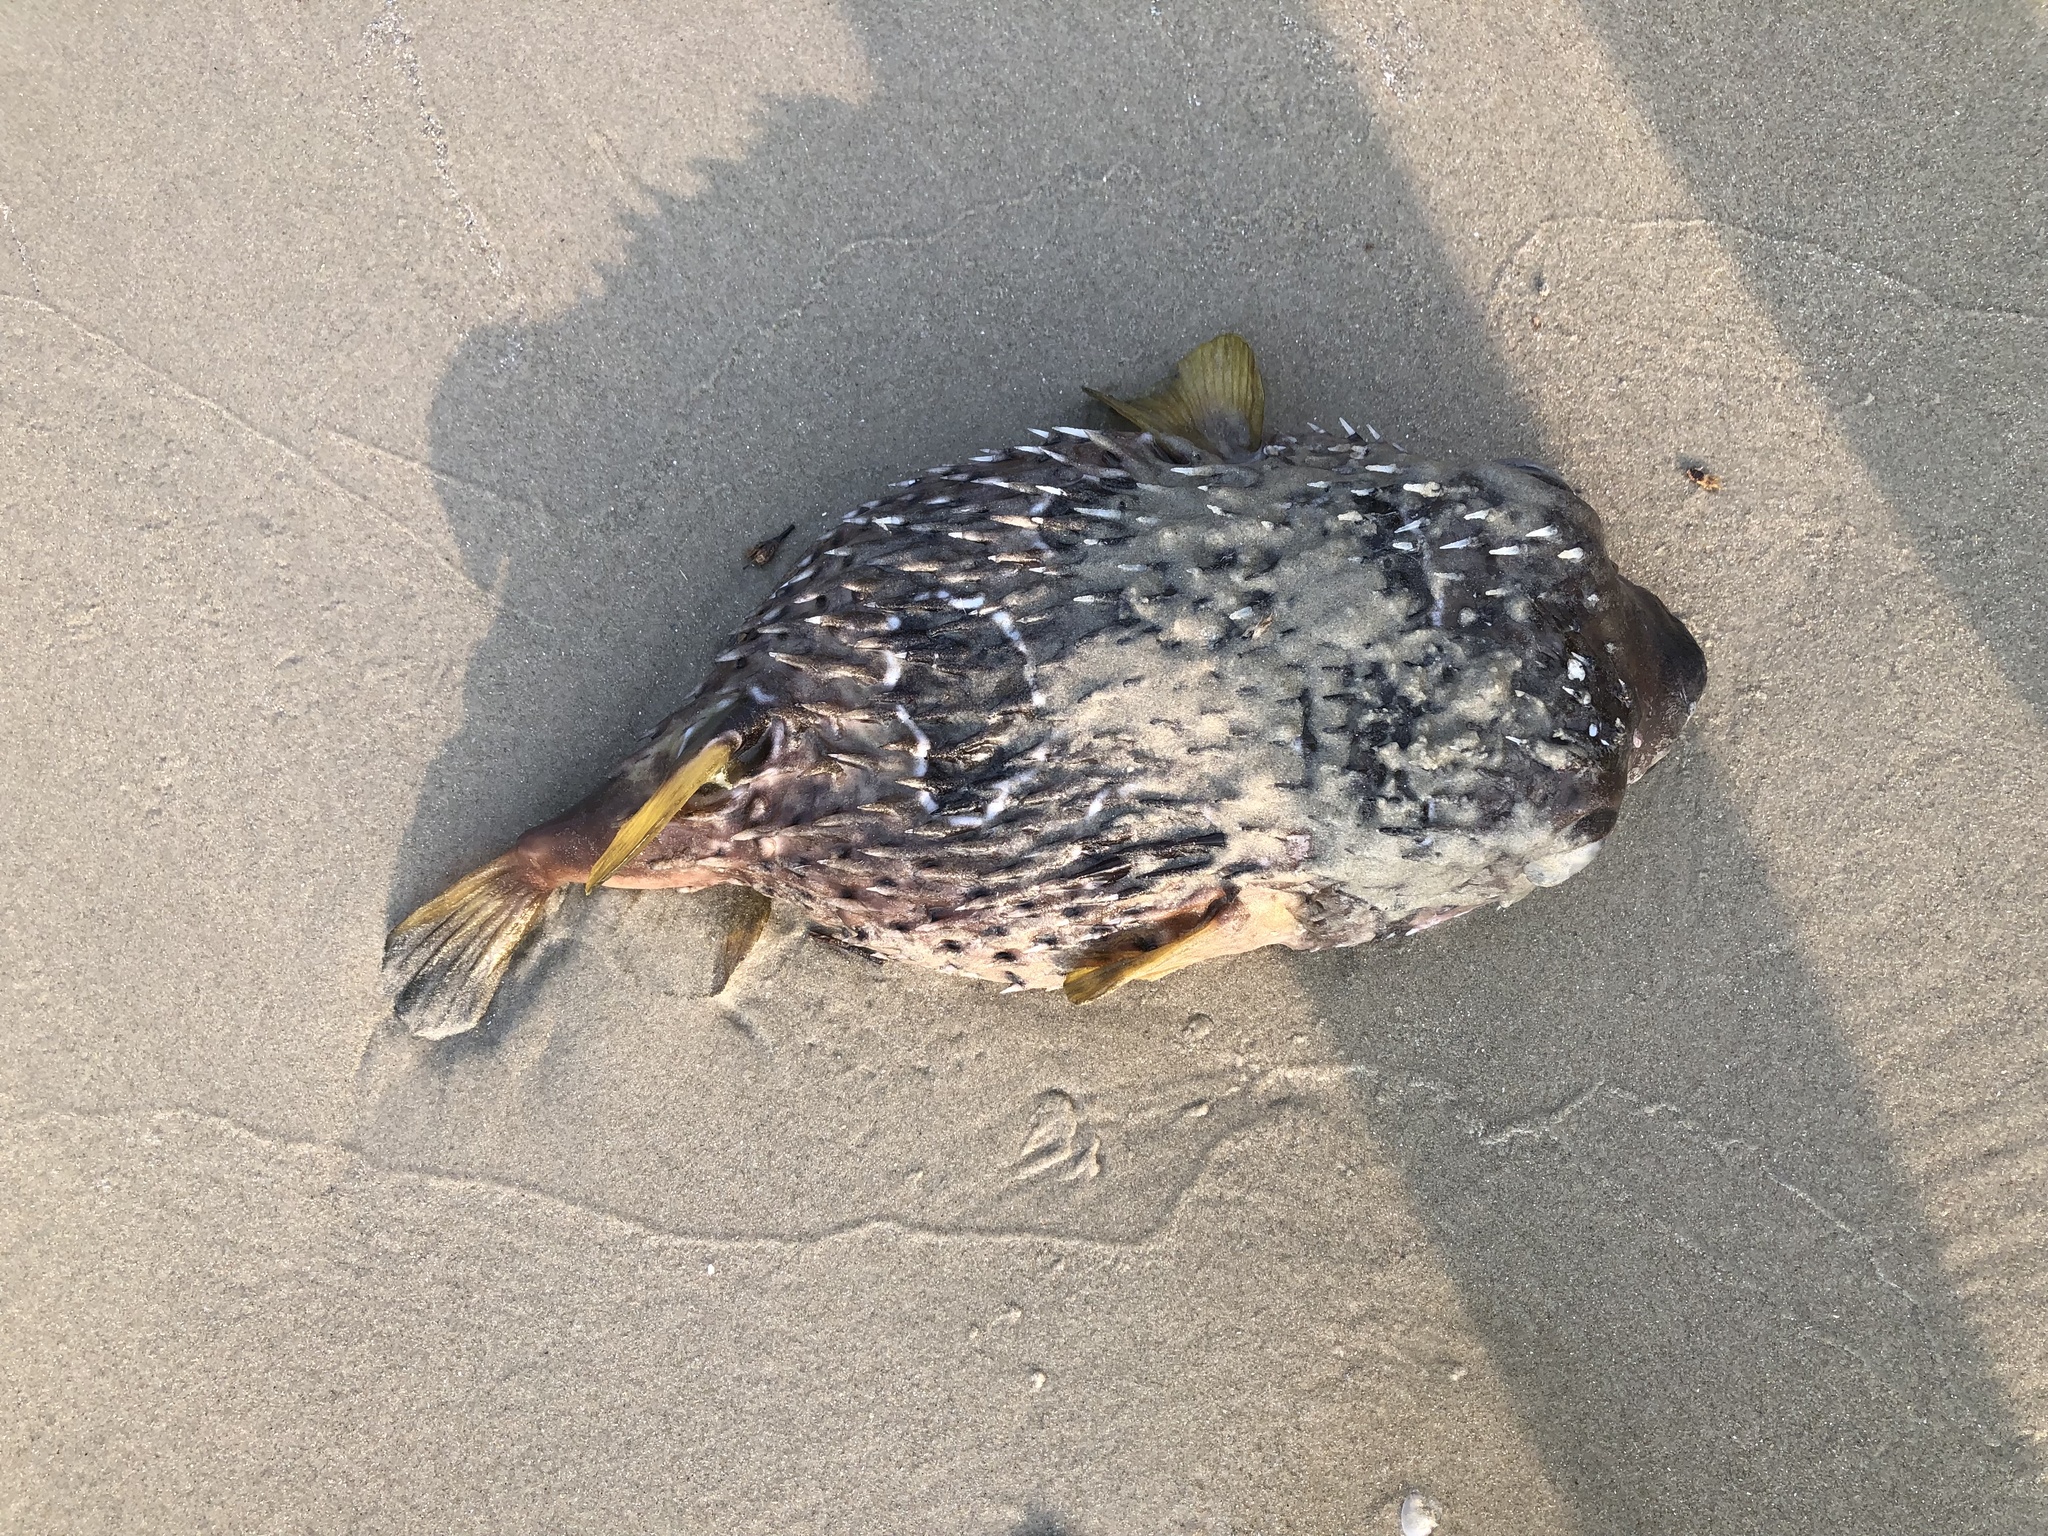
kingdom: Animalia
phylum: Chordata
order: Tetraodontiformes
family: Diodontidae
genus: Diodon
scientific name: Diodon liturosus
